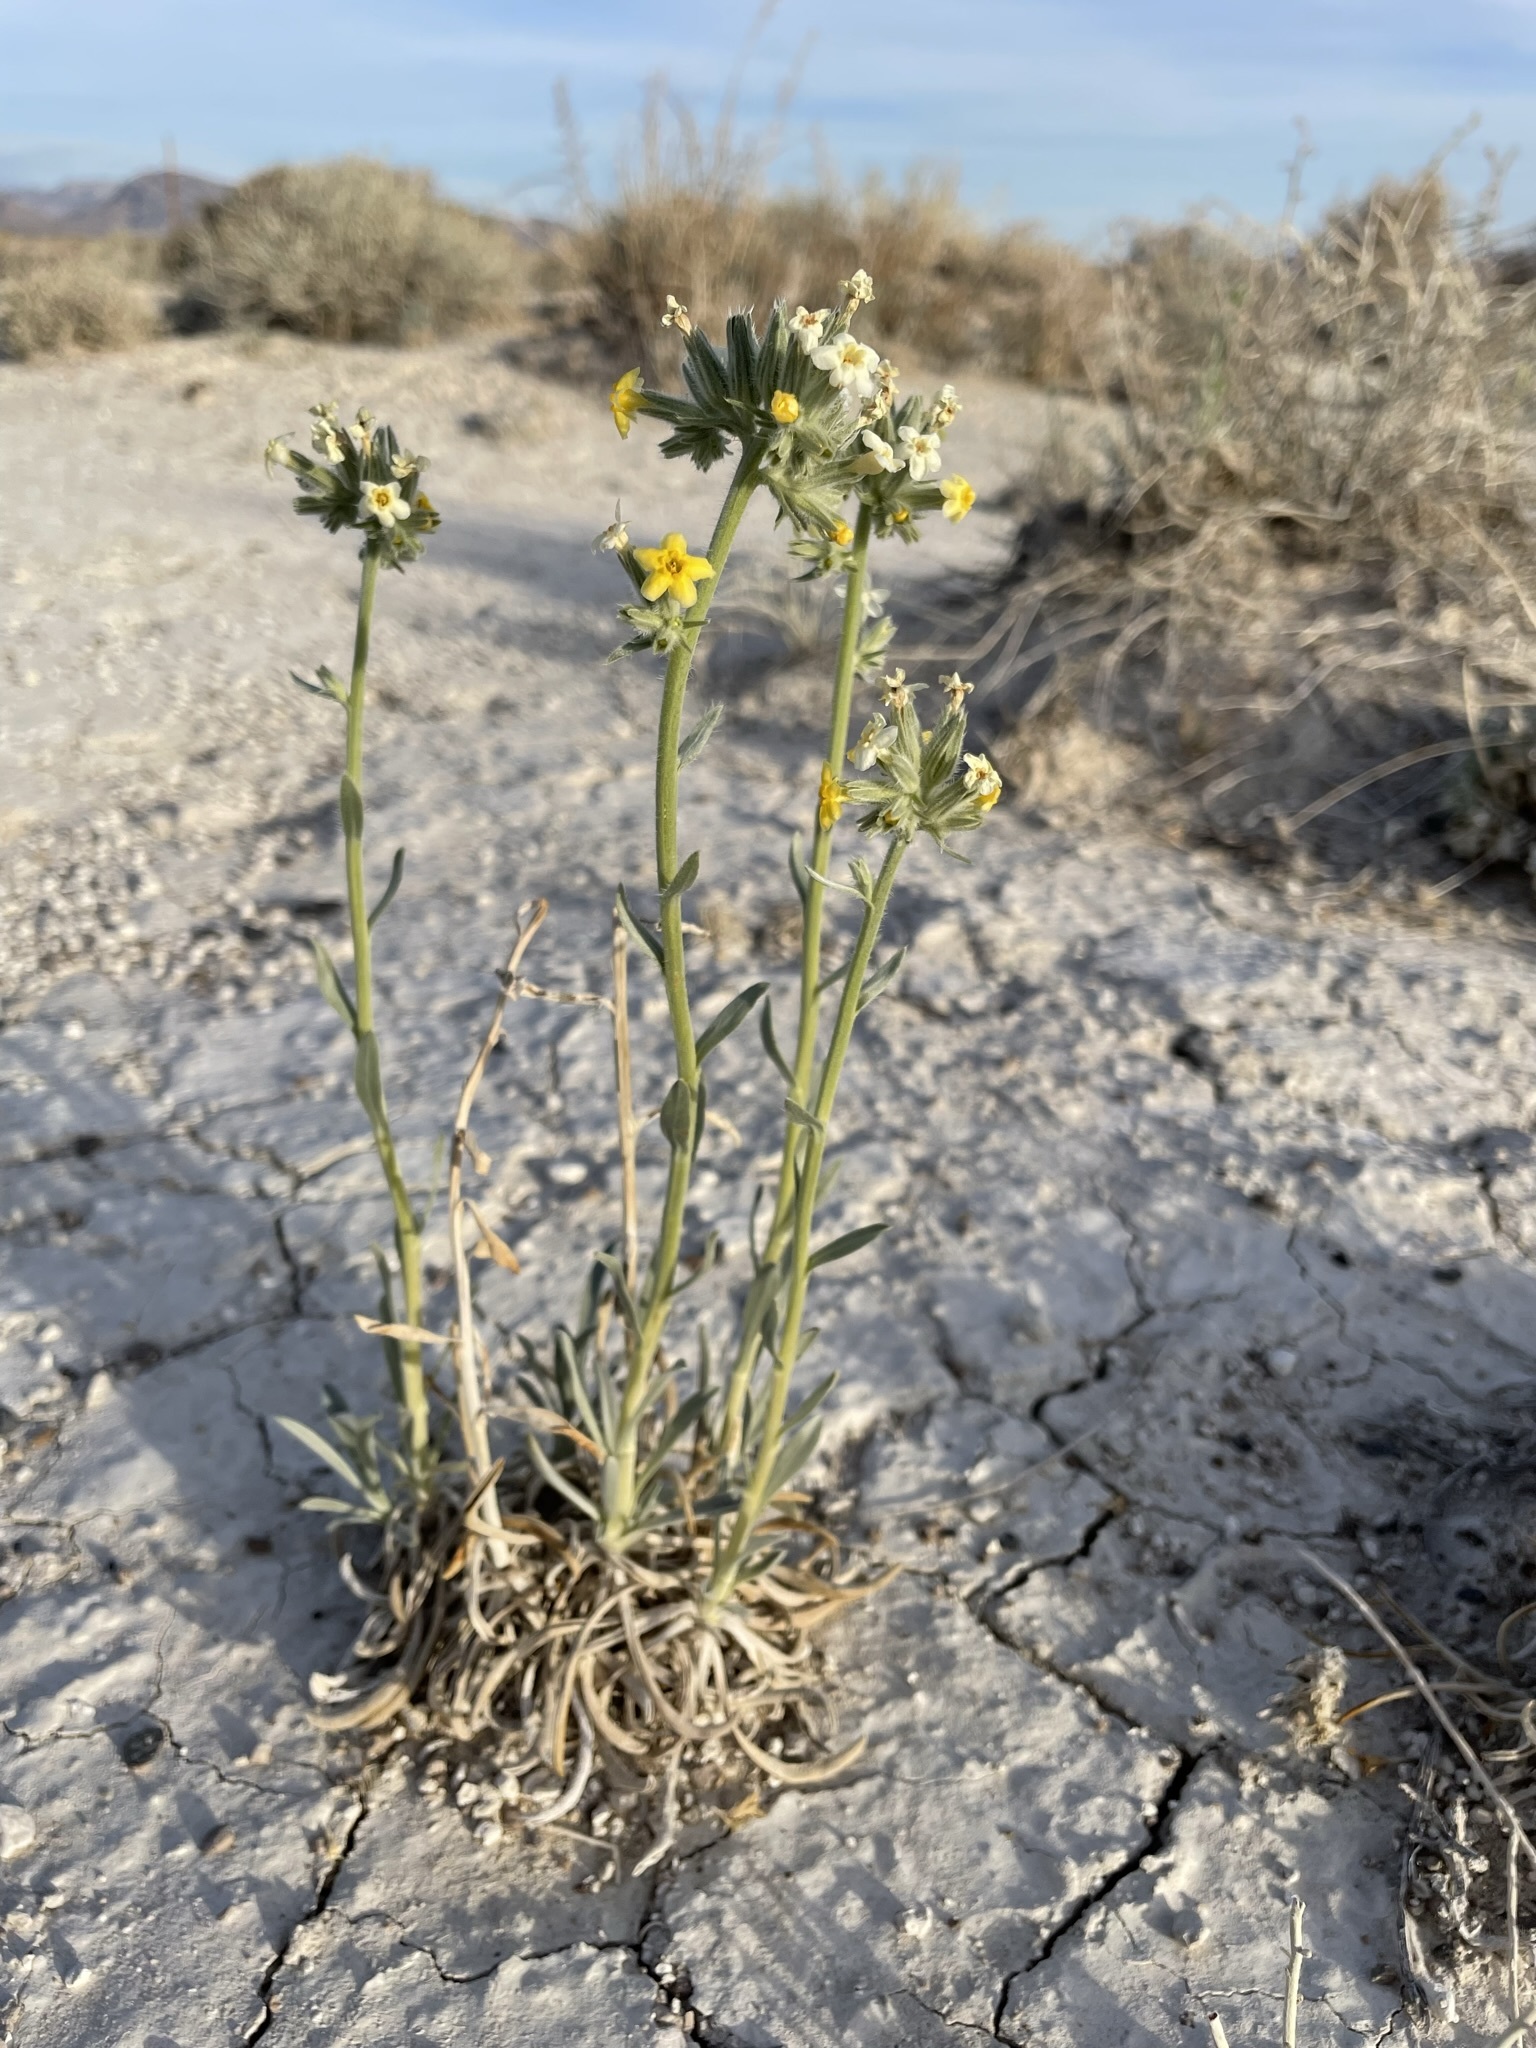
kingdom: Plantae
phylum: Tracheophyta
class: Magnoliopsida
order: Boraginales
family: Boraginaceae
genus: Oreocarya
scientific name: Oreocarya confertiflora
